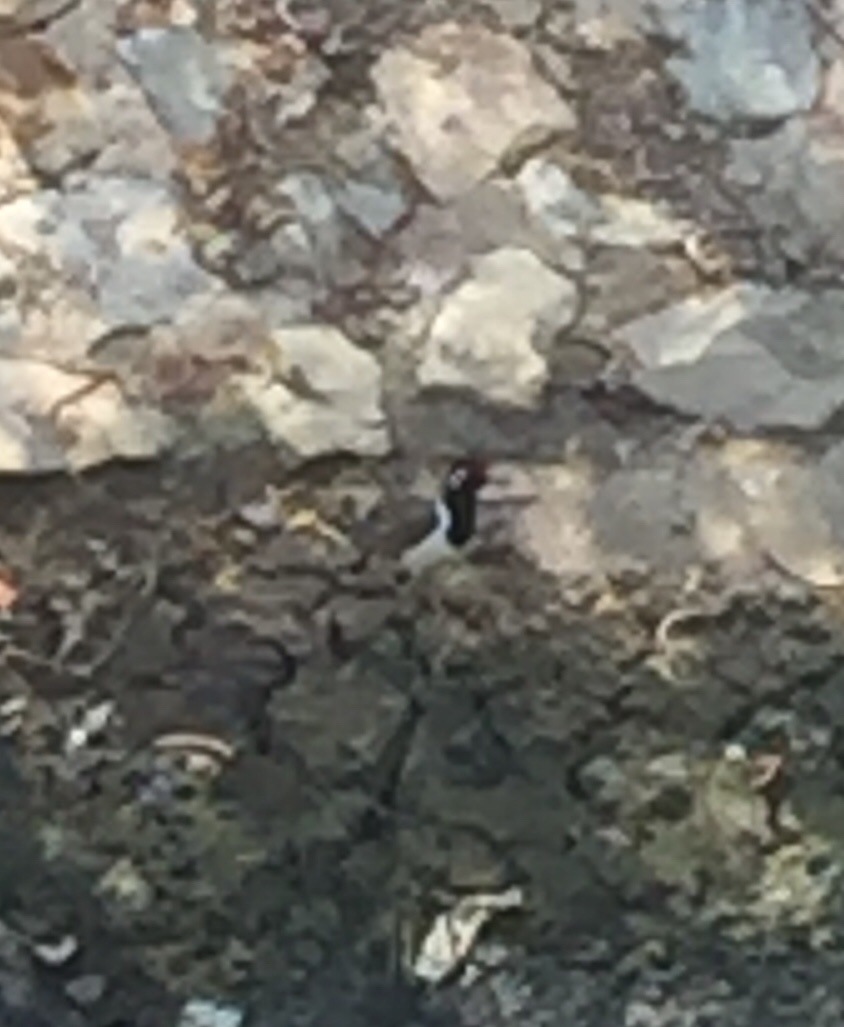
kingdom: Animalia
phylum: Chordata
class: Aves
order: Charadriiformes
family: Charadriidae
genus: Vanellus
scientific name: Vanellus indicus
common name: Red-wattled lapwing
